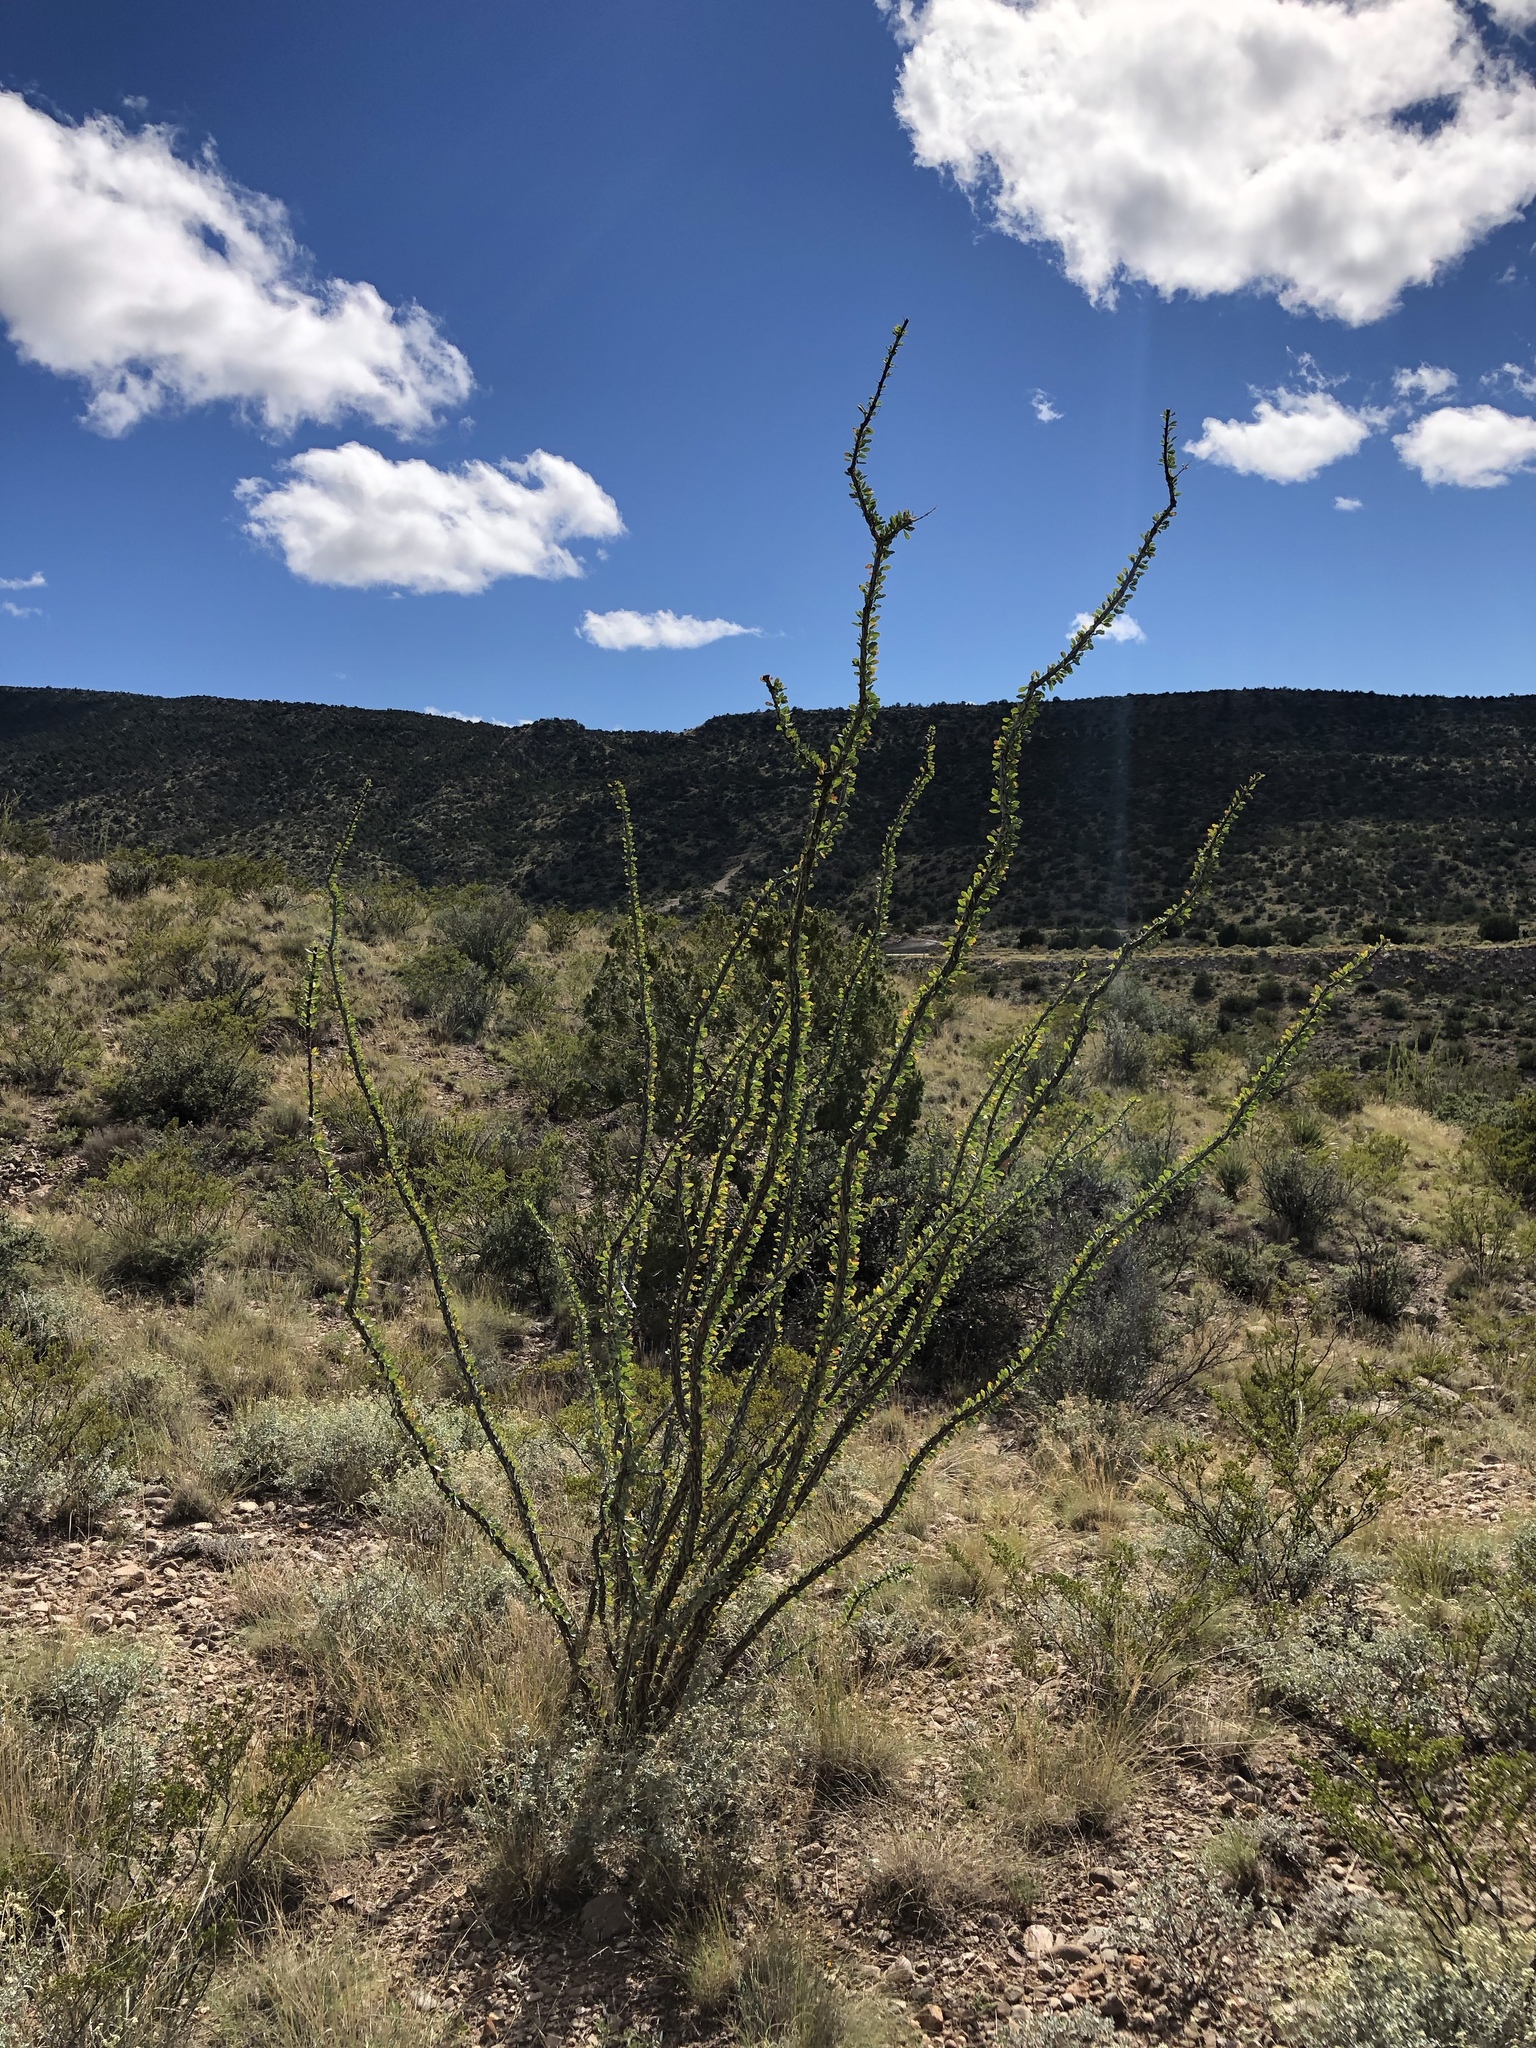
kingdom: Plantae
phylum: Tracheophyta
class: Magnoliopsida
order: Ericales
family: Fouquieriaceae
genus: Fouquieria
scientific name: Fouquieria splendens
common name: Vine-cactus
